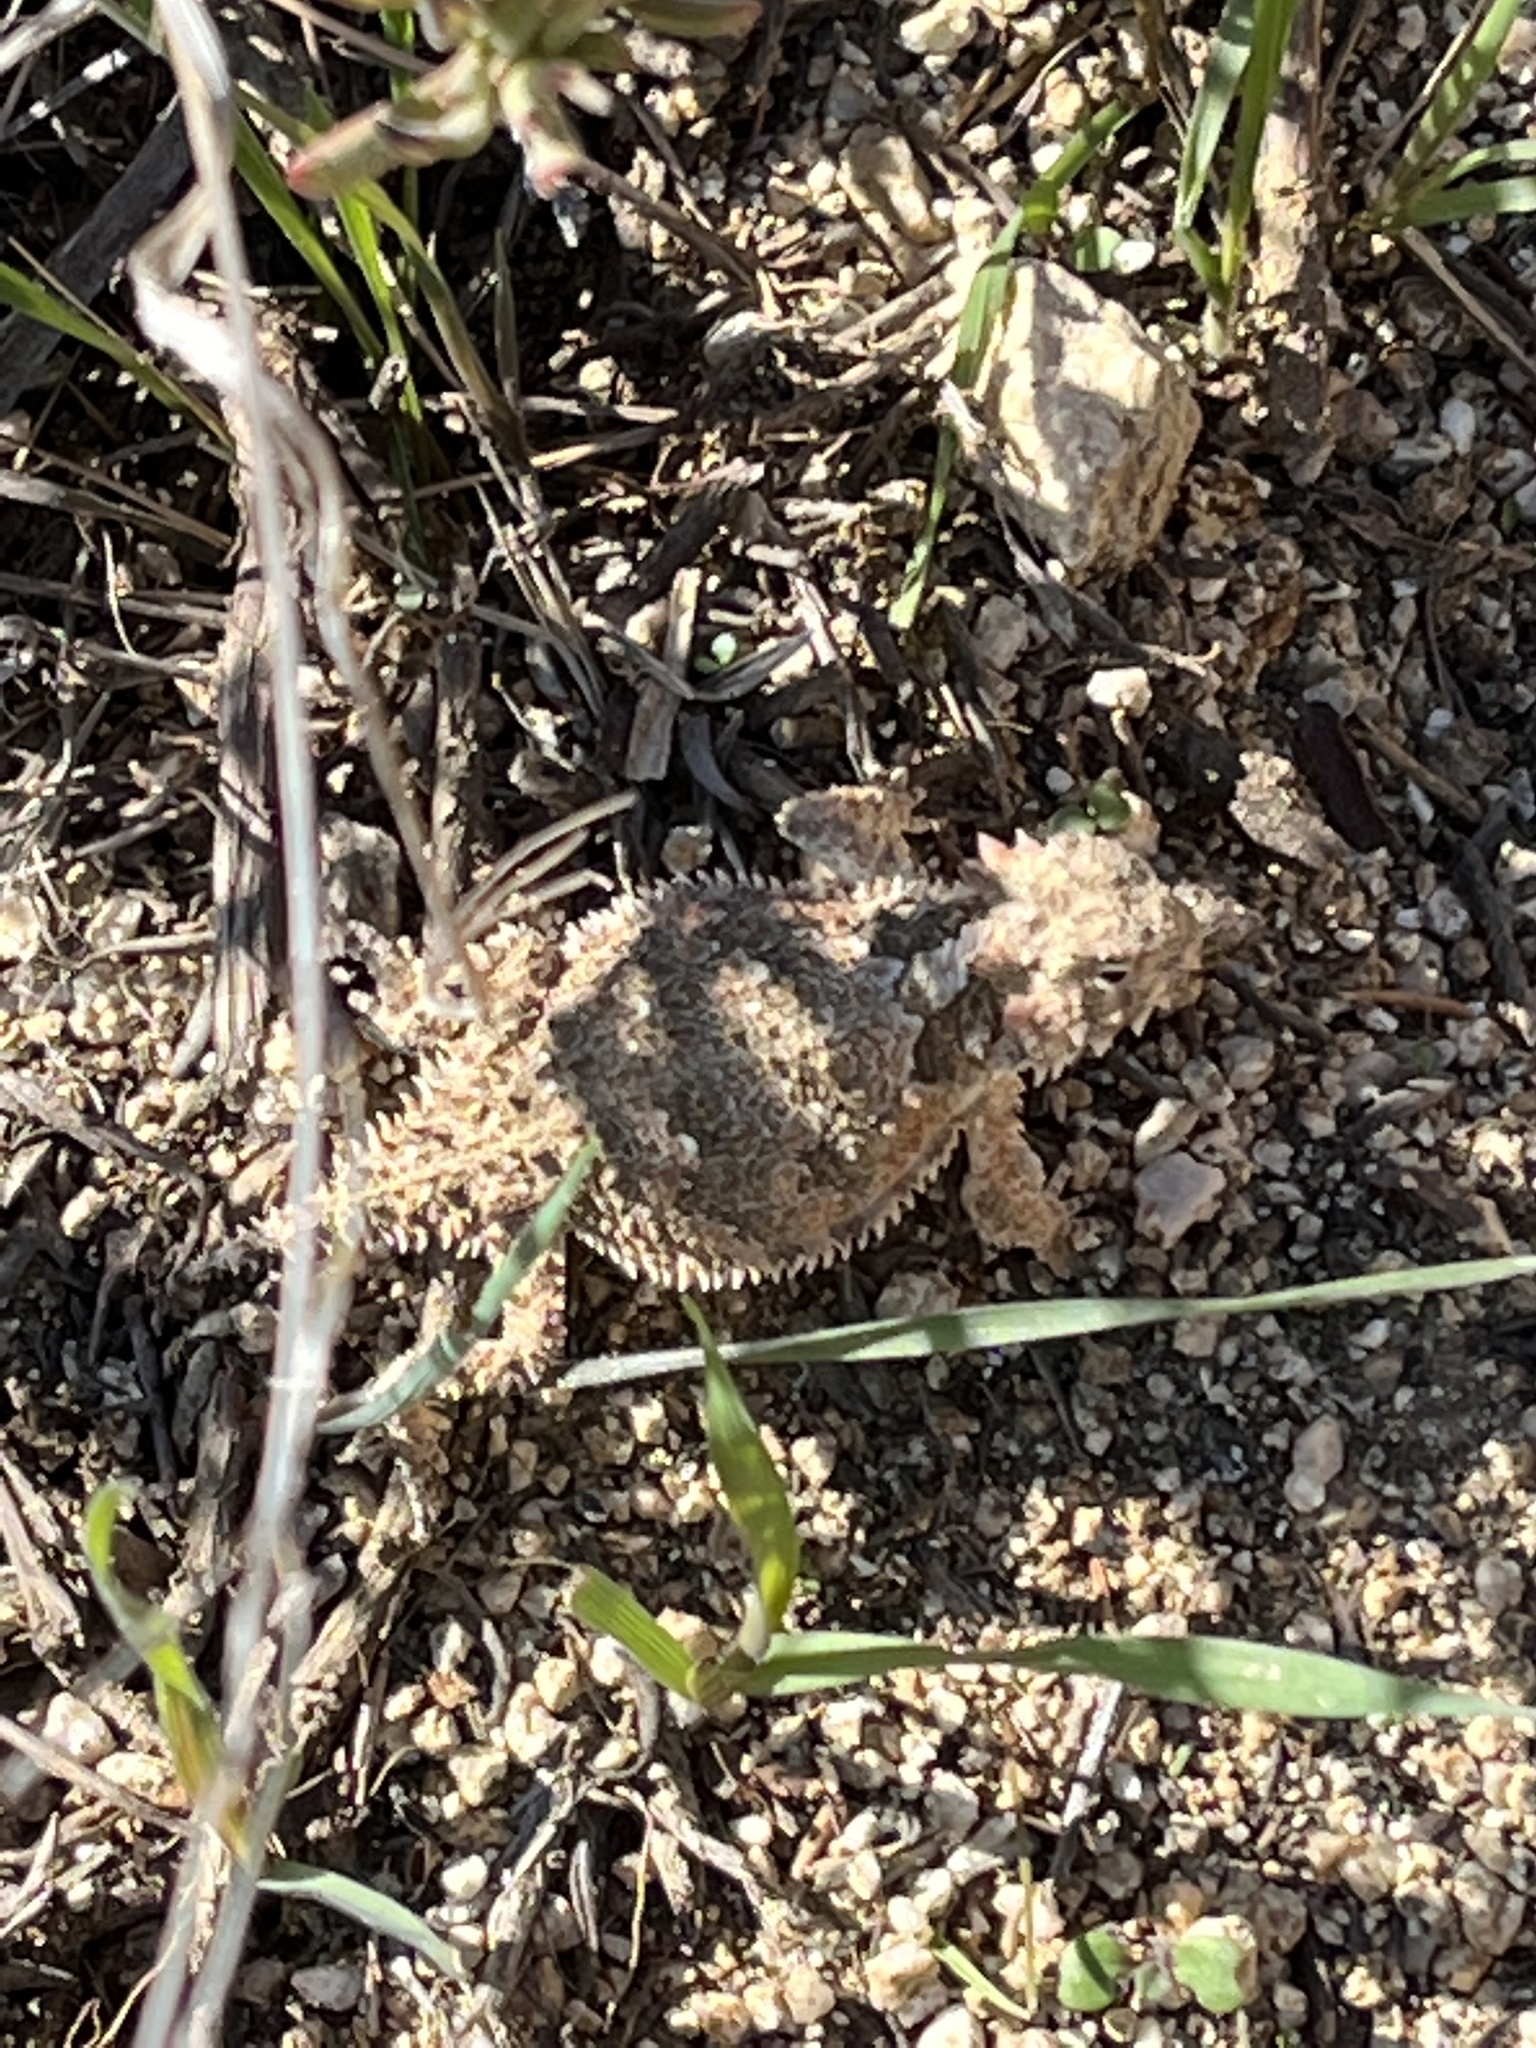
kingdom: Animalia
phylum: Chordata
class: Squamata
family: Phrynosomatidae
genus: Phrynosoma
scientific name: Phrynosoma blainvillii
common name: San diego horned lizard
